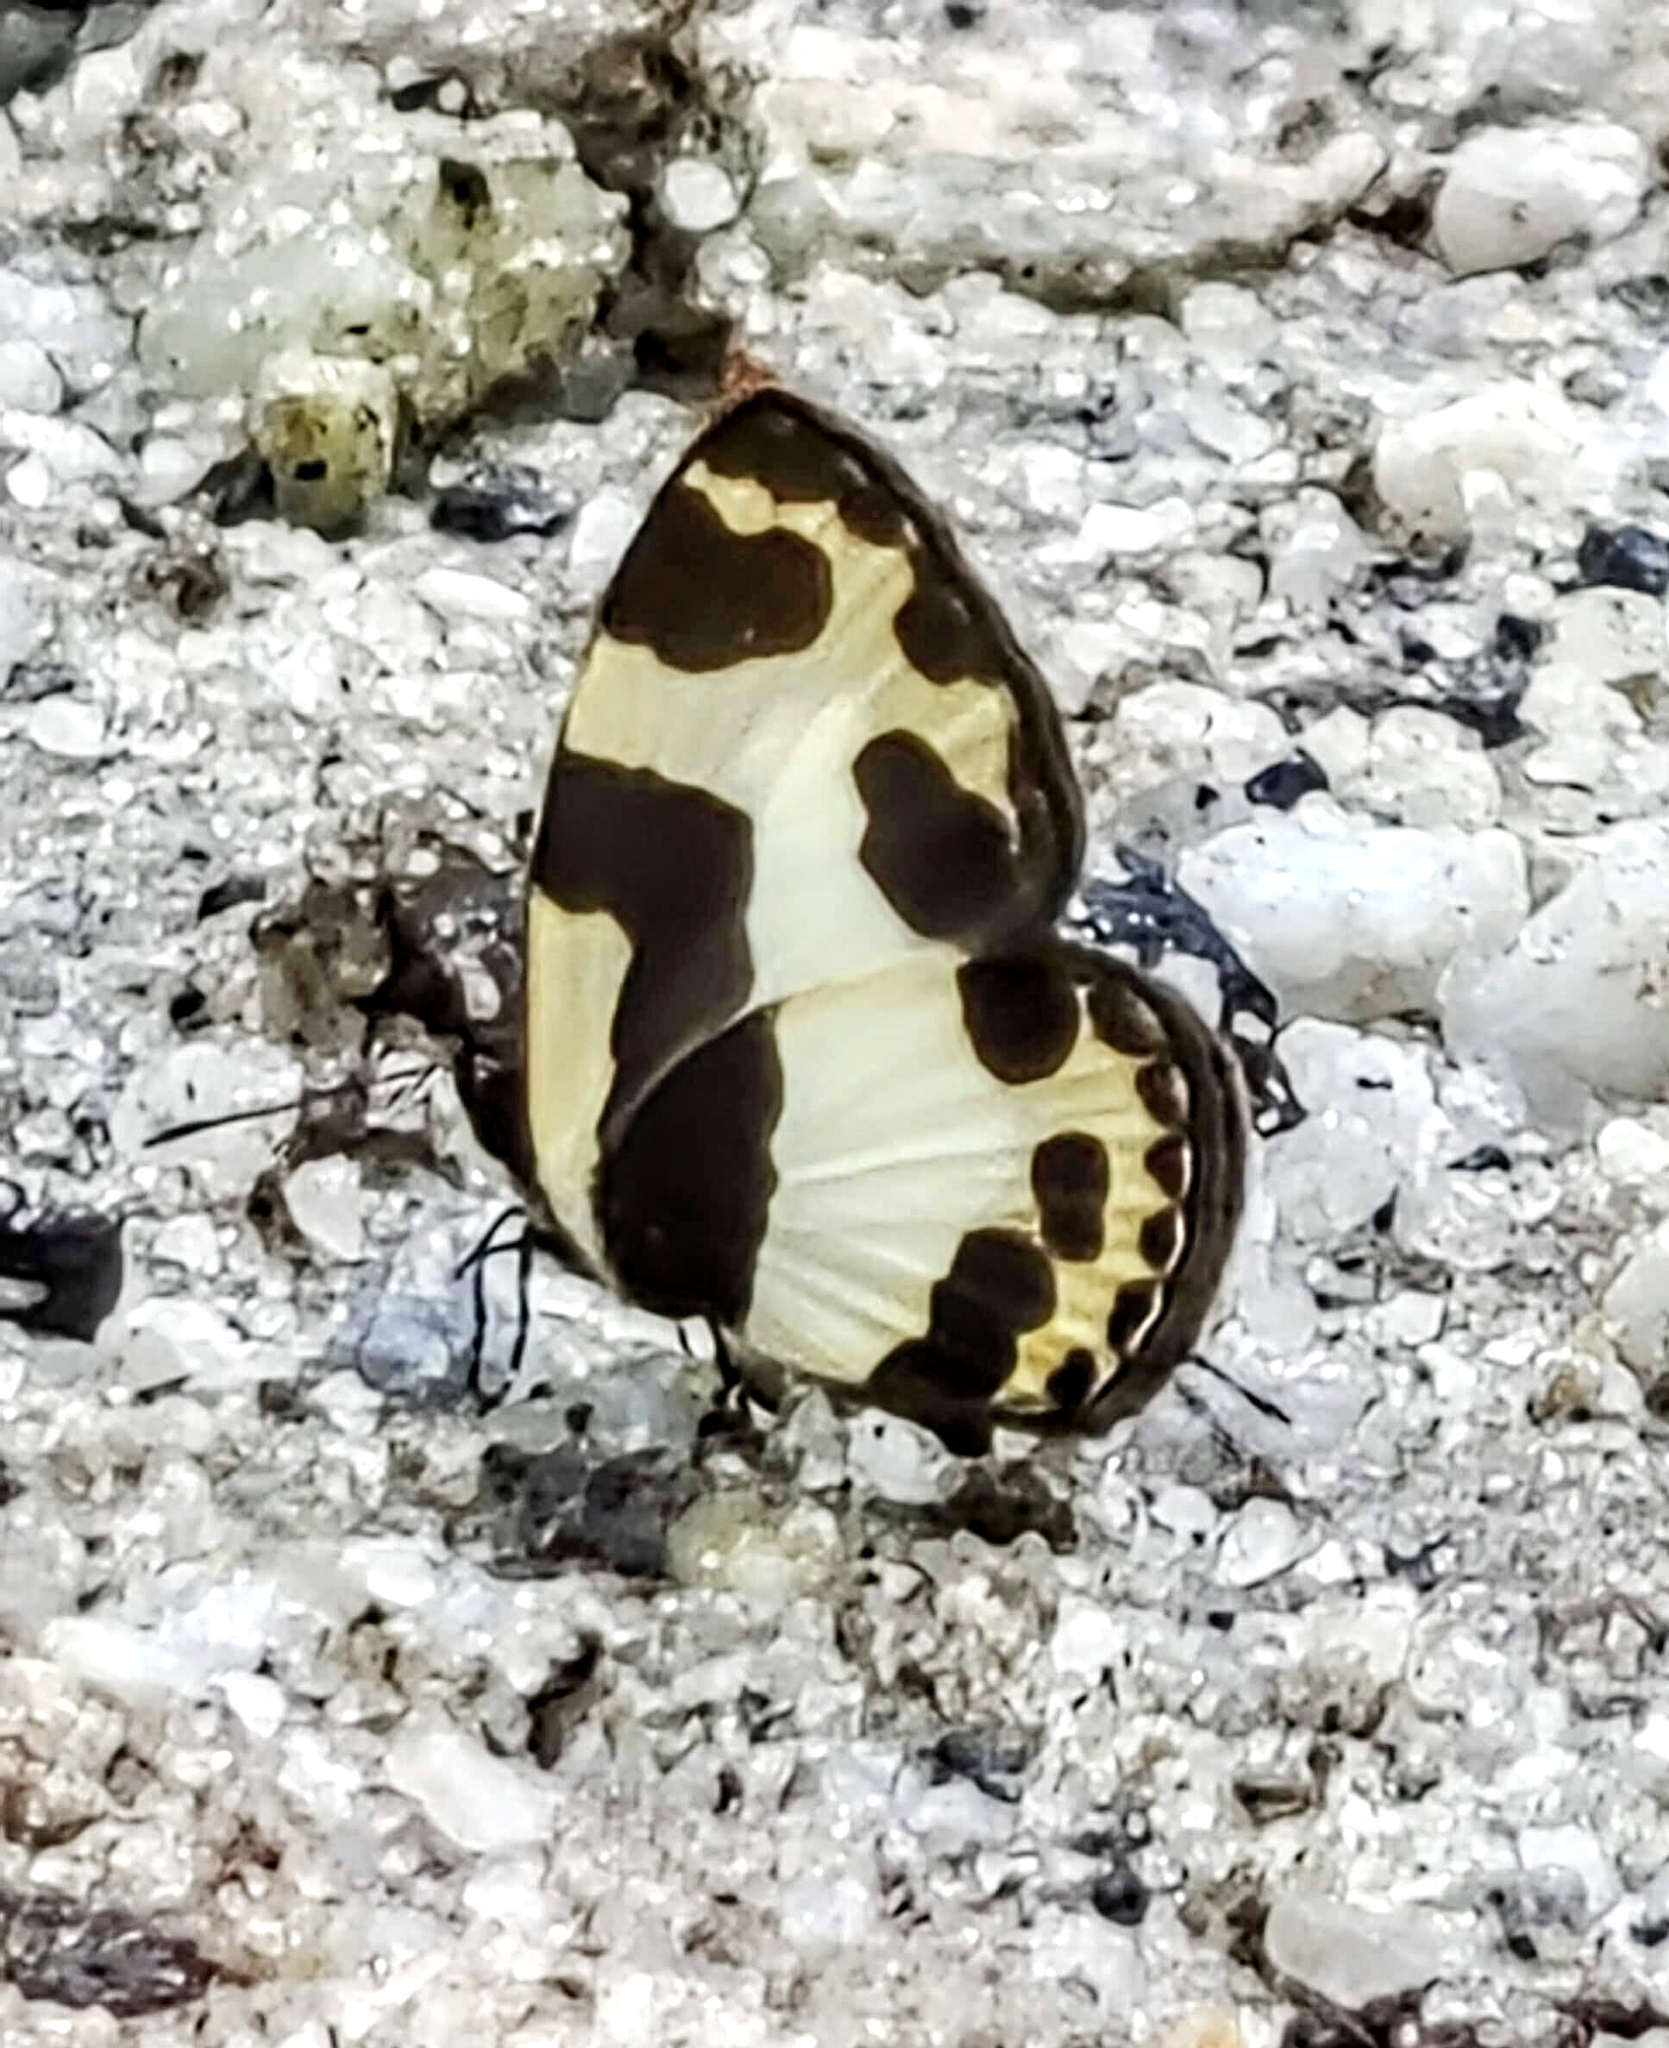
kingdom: Animalia
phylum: Arthropoda
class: Insecta
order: Lepidoptera
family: Lycaenidae
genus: Caleta
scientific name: Caleta elna
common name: Elbowed pierrot
